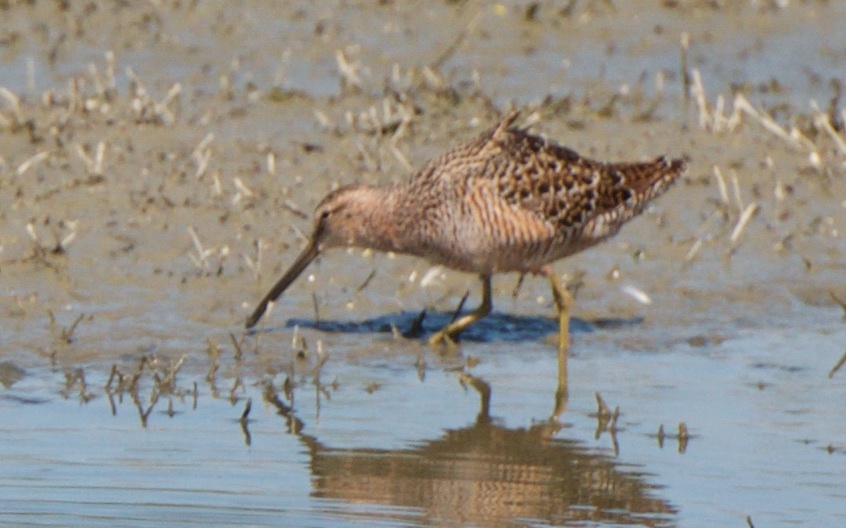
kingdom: Animalia
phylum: Chordata
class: Aves
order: Charadriiformes
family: Scolopacidae
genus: Limnodromus
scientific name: Limnodromus scolopaceus
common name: Long-billed dowitcher
